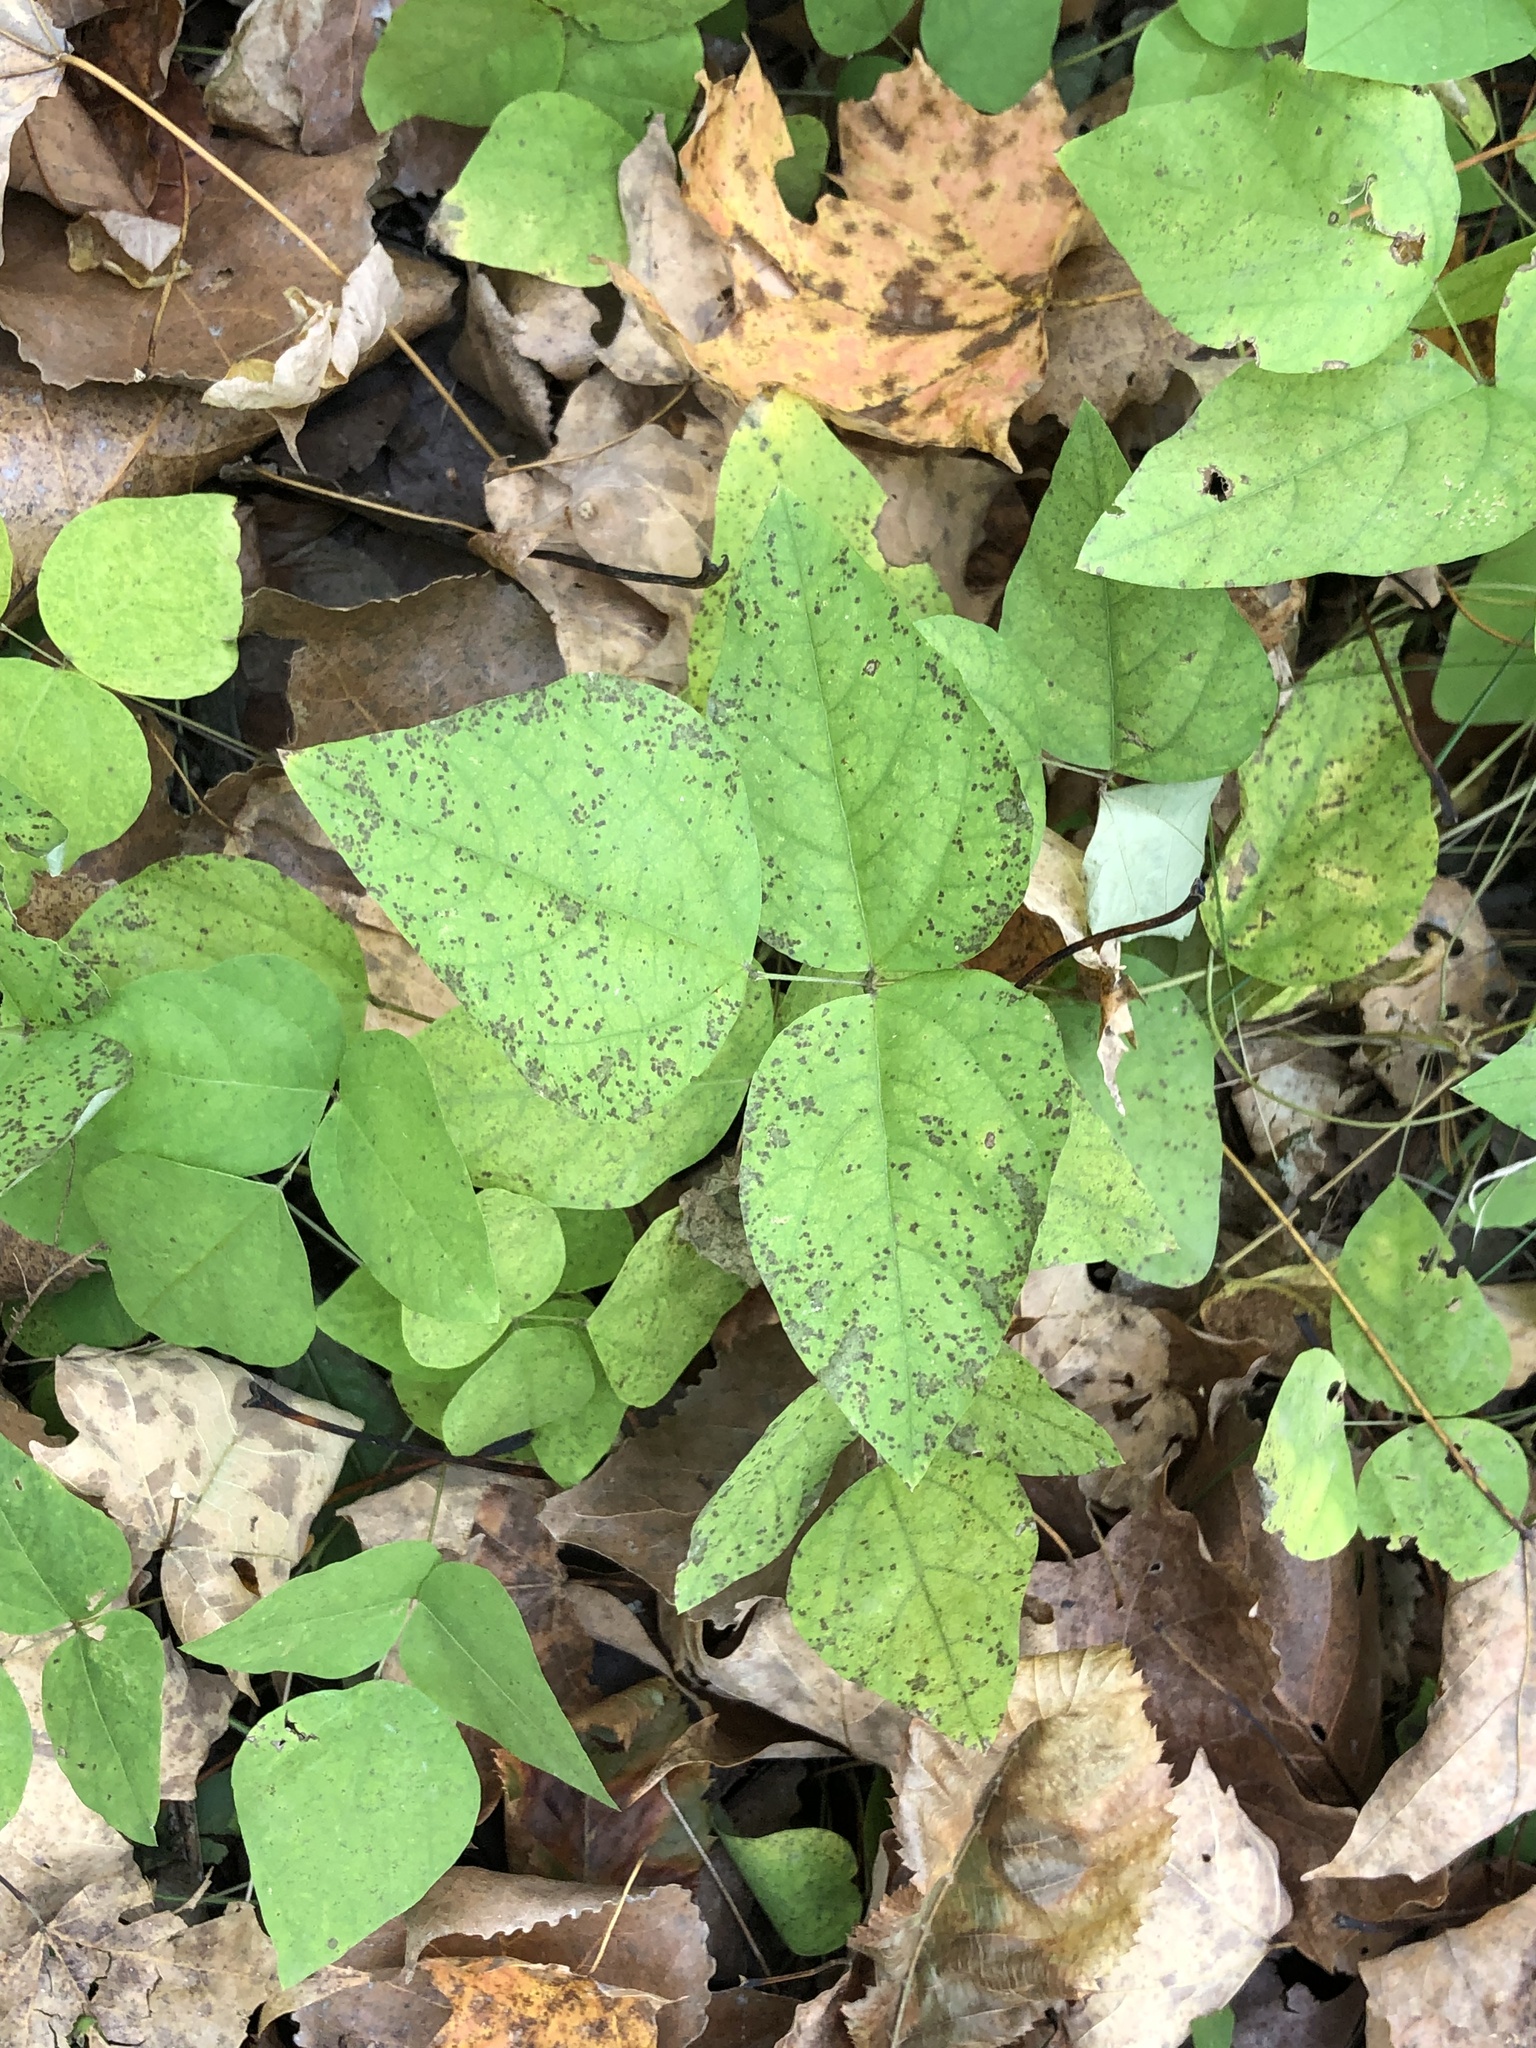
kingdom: Plantae
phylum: Tracheophyta
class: Magnoliopsida
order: Fabales
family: Fabaceae
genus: Amphicarpaea
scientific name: Amphicarpaea bracteata
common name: American hog peanut
